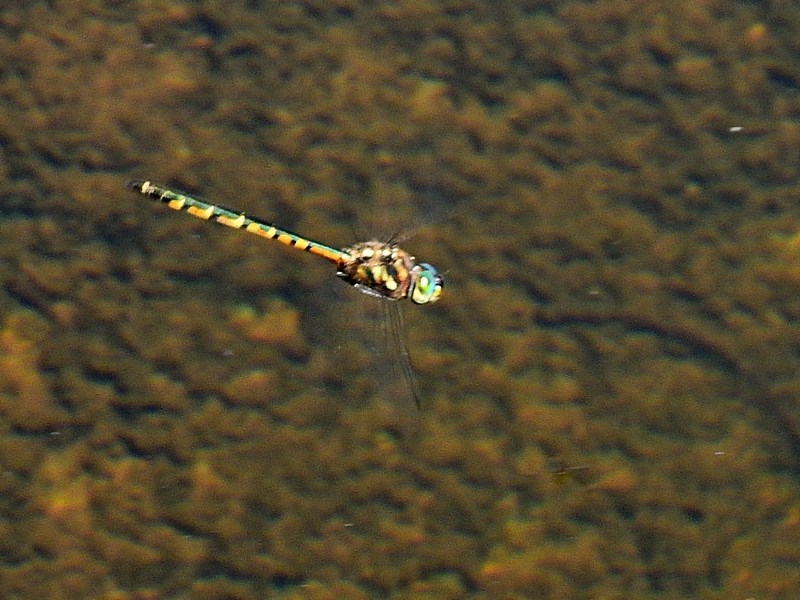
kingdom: Animalia
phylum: Arthropoda
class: Insecta
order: Odonata
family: Corduliidae
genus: Hemicordulia
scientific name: Hemicordulia australiae
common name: Sentry dragonfly
